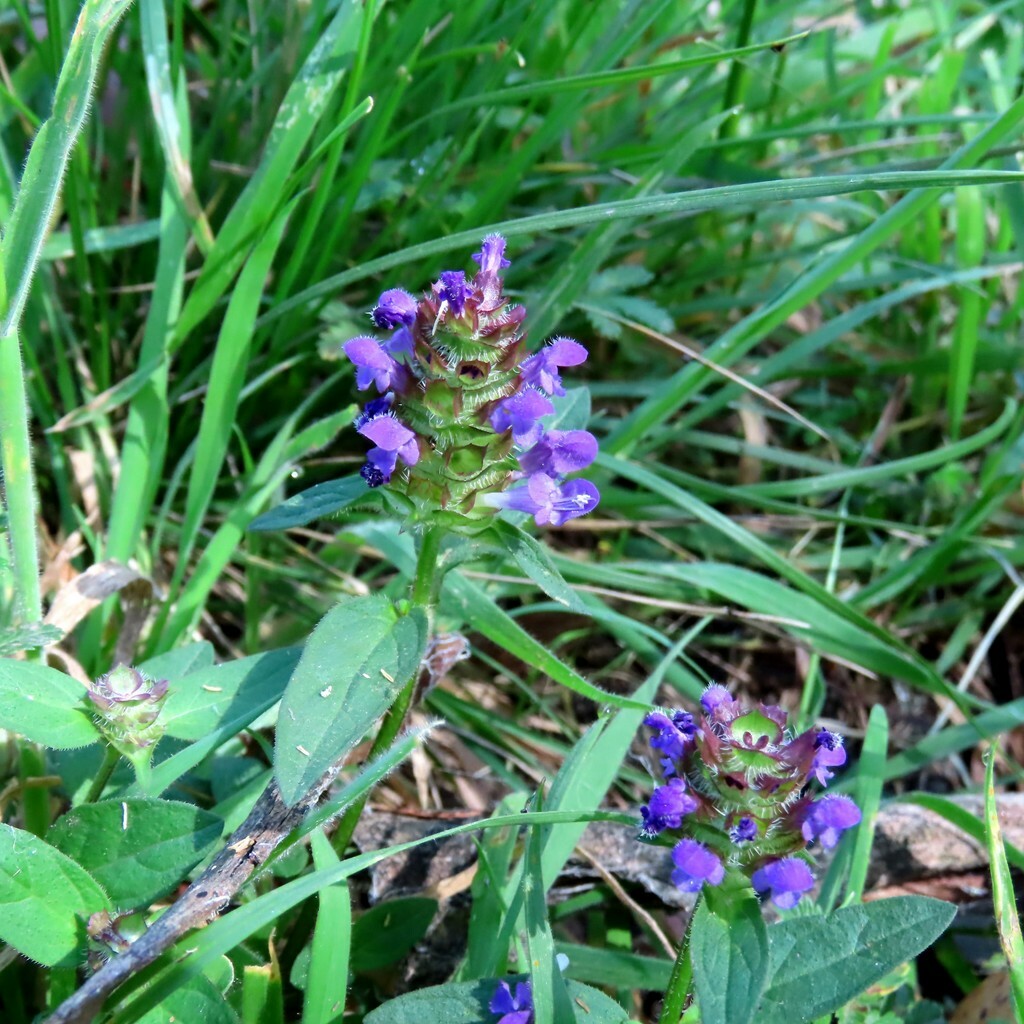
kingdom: Plantae
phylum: Tracheophyta
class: Magnoliopsida
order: Lamiales
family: Lamiaceae
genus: Prunella
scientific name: Prunella vulgaris
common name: Heal-all
